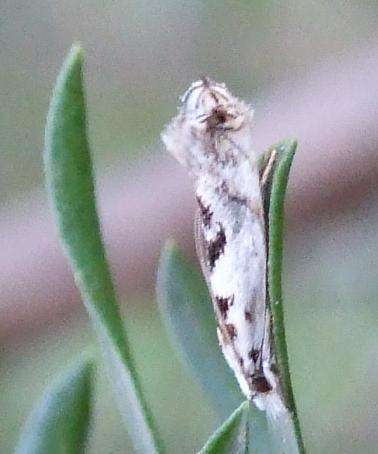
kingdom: Animalia
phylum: Arthropoda
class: Insecta
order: Lepidoptera
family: Tineidae
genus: Erechthias
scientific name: Erechthias mystacinella
